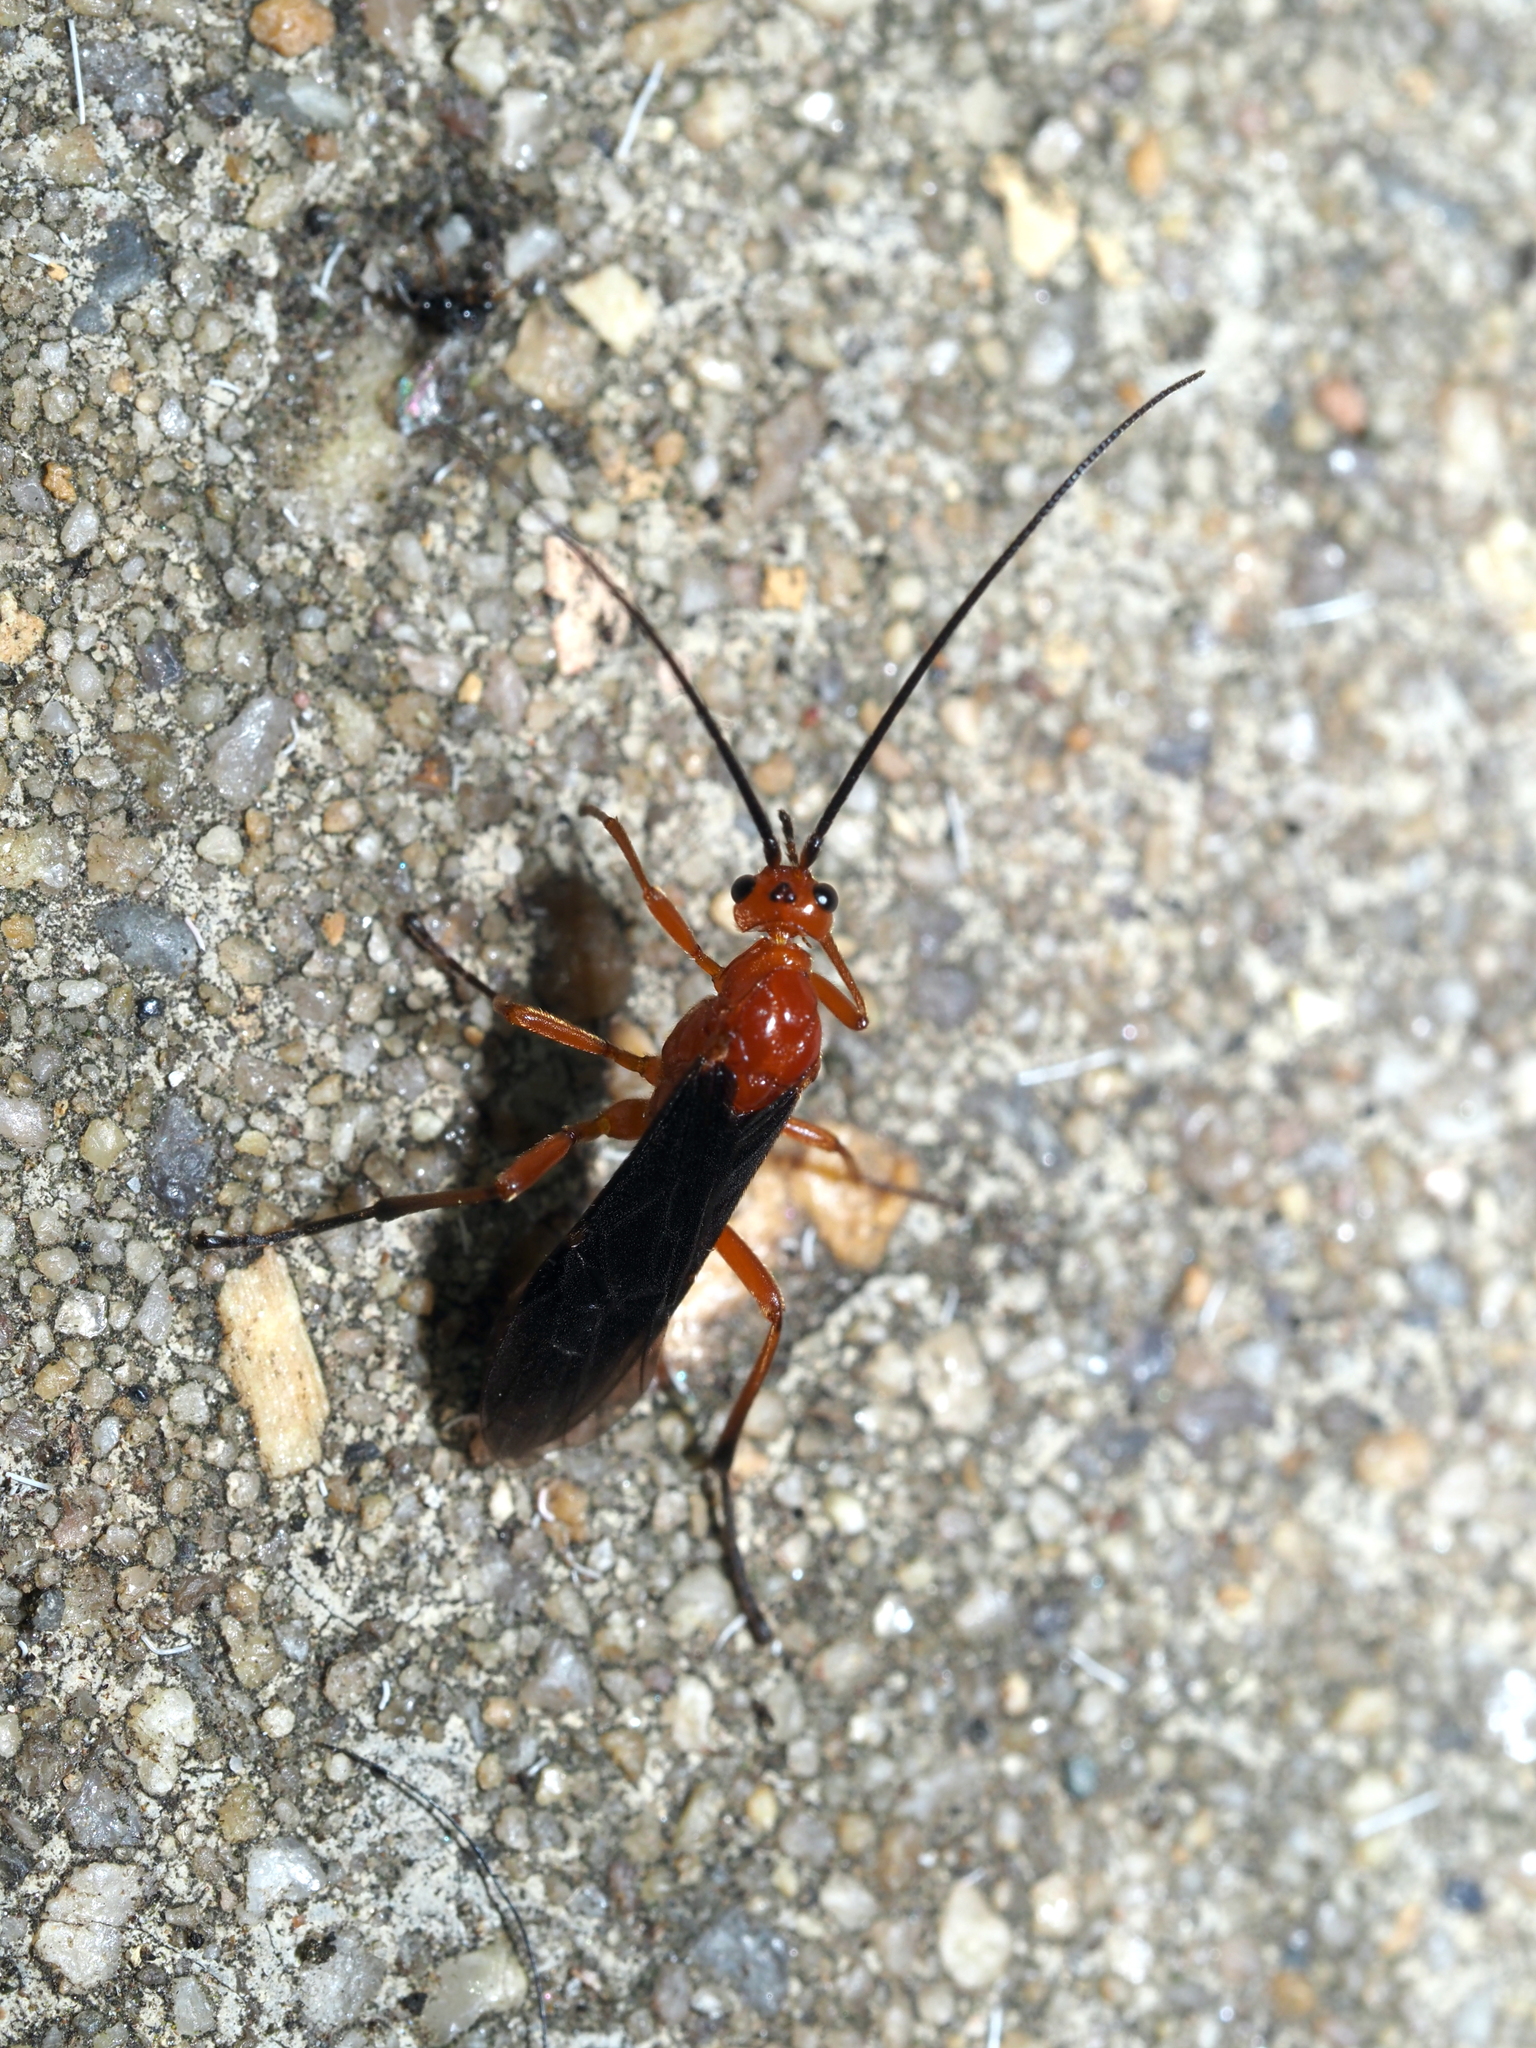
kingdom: Animalia
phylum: Arthropoda
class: Insecta
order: Hymenoptera
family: Braconidae
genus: Aleiodes
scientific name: Aleiodes politiceps
